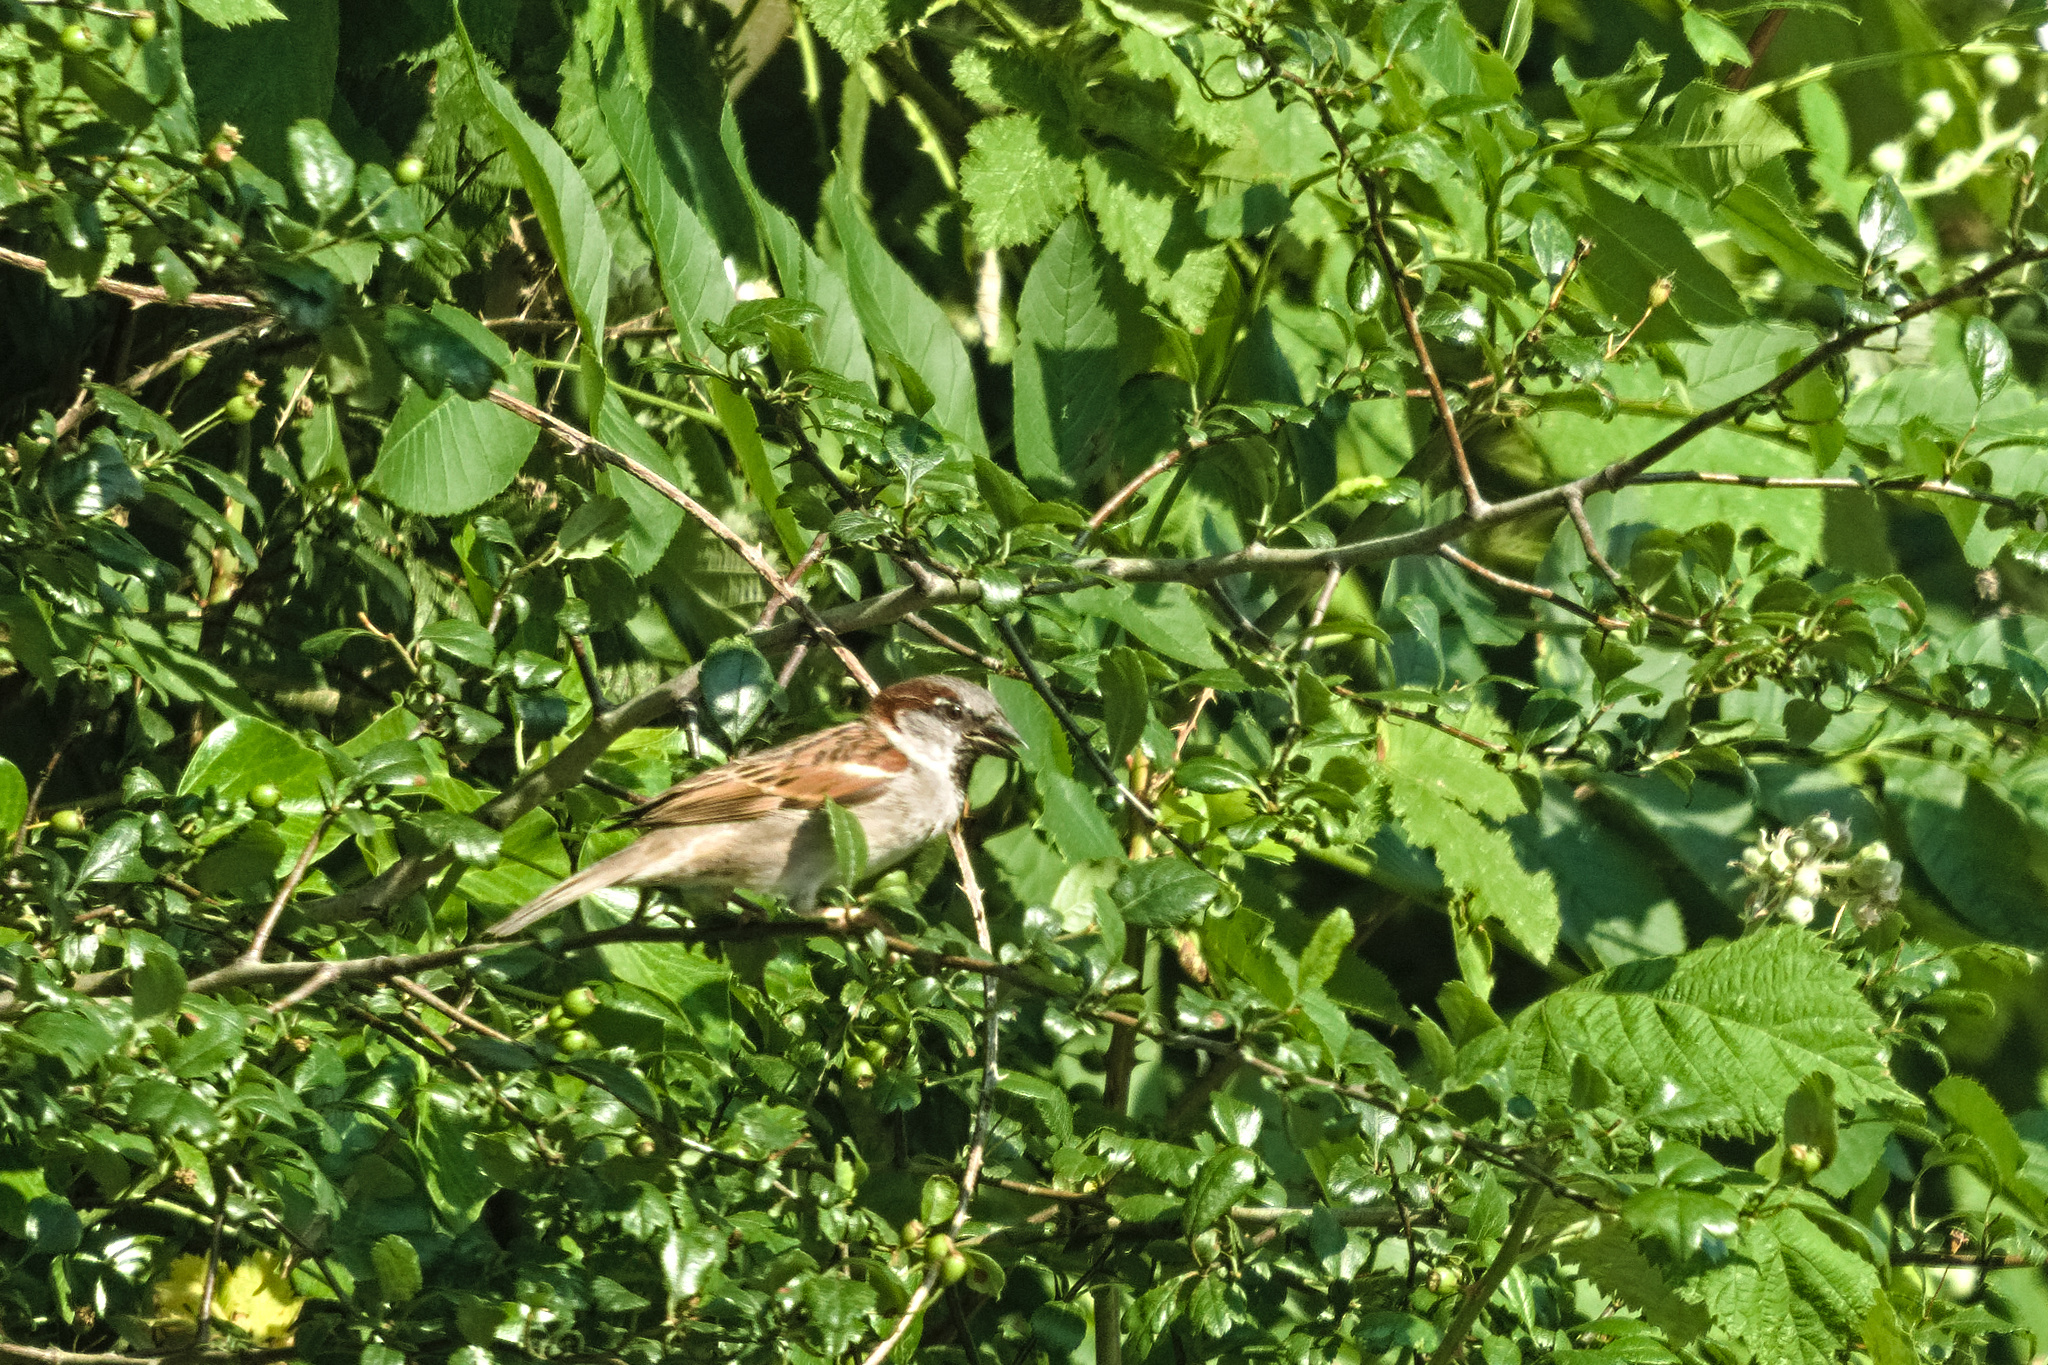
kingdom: Animalia
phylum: Chordata
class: Aves
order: Passeriformes
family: Passeridae
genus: Passer
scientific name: Passer domesticus
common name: House sparrow
